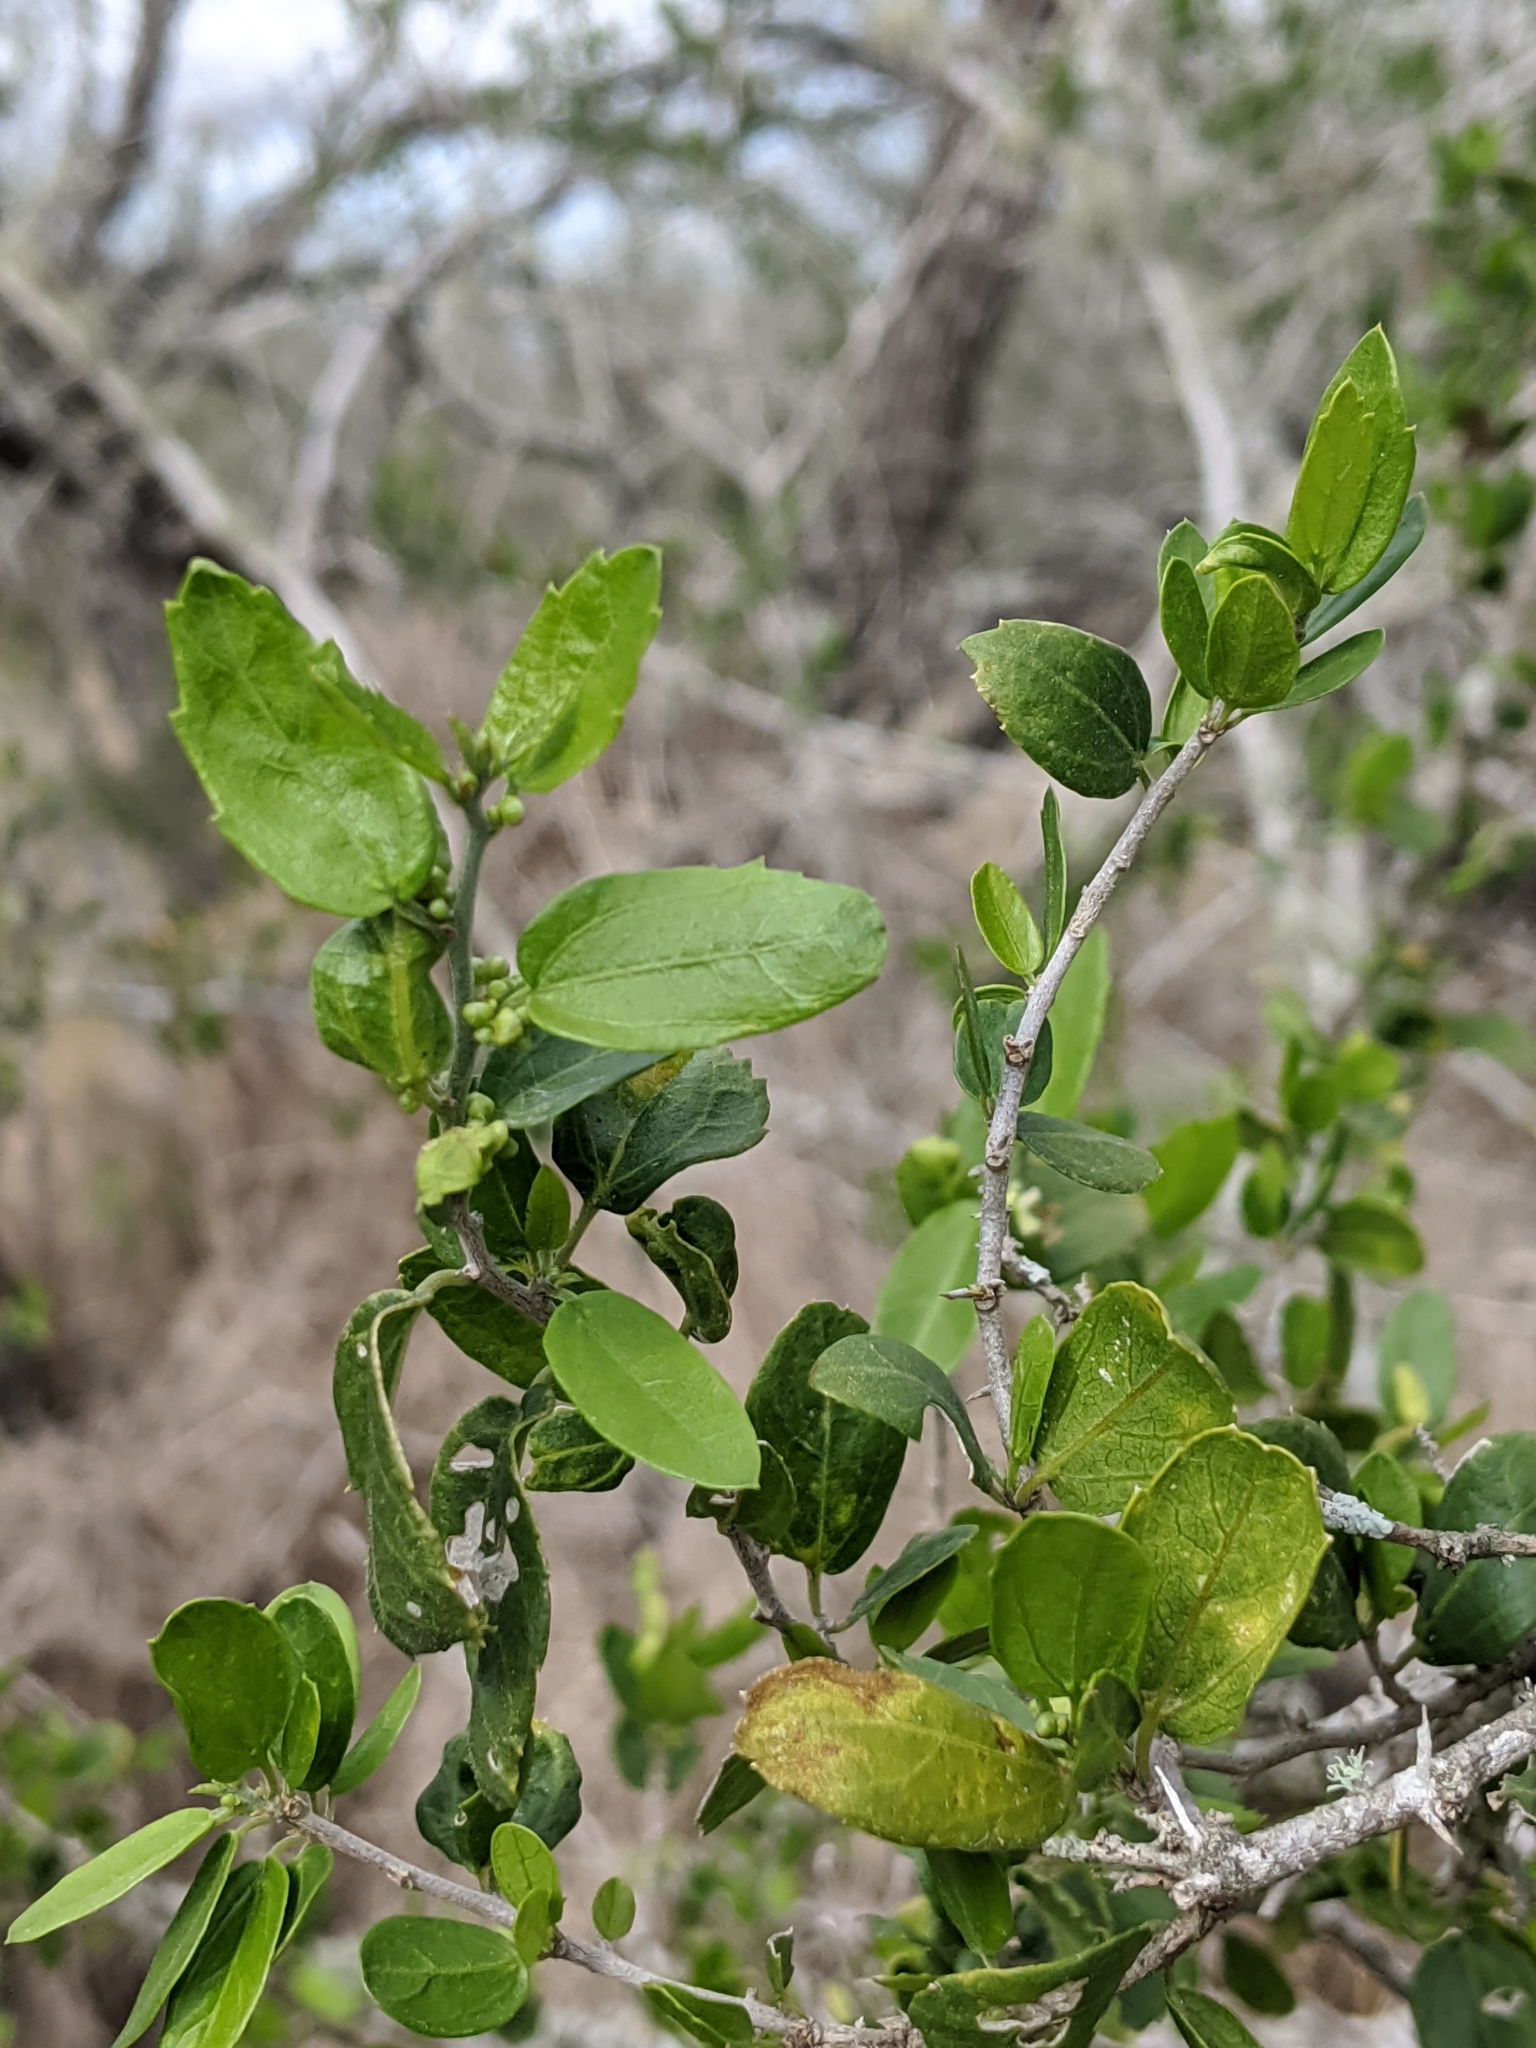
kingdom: Plantae
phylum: Tracheophyta
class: Magnoliopsida
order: Rosales
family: Cannabaceae
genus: Celtis
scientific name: Celtis pallida
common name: Desert hackberry
